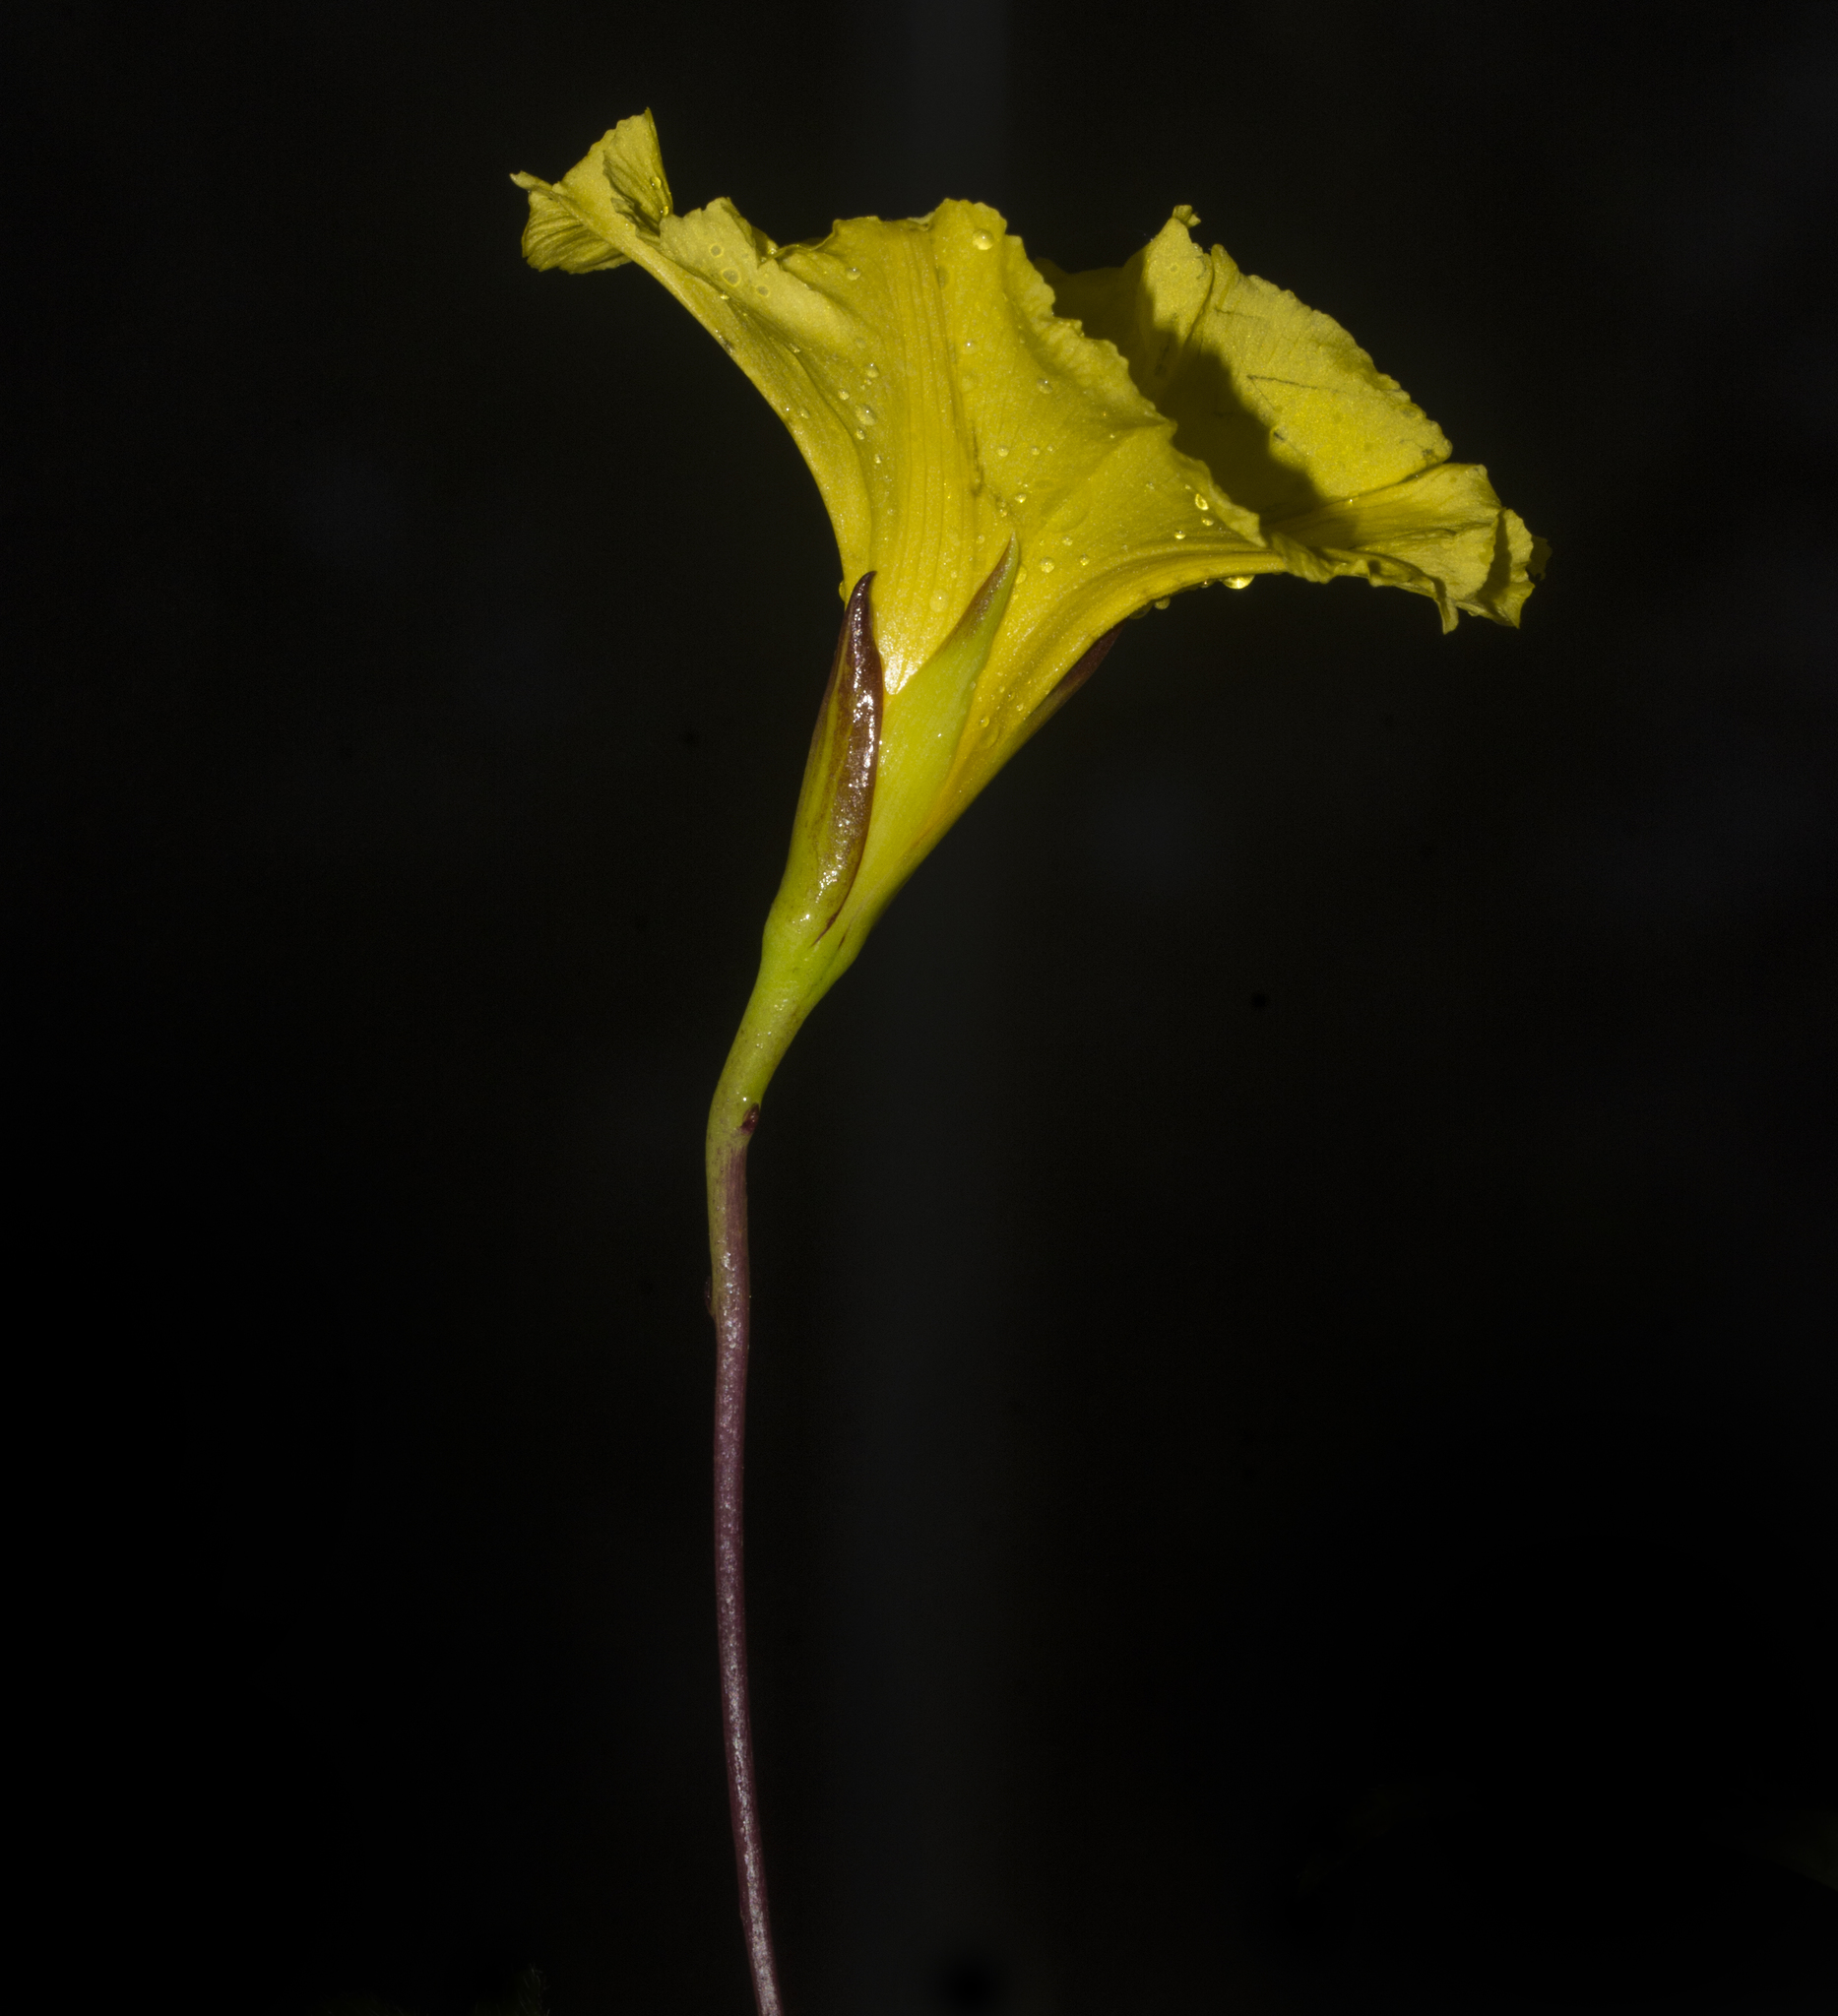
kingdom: Plantae
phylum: Tracheophyta
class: Magnoliopsida
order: Solanales
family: Convolvulaceae
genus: Distimake
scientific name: Distimake rhyncorhizus
